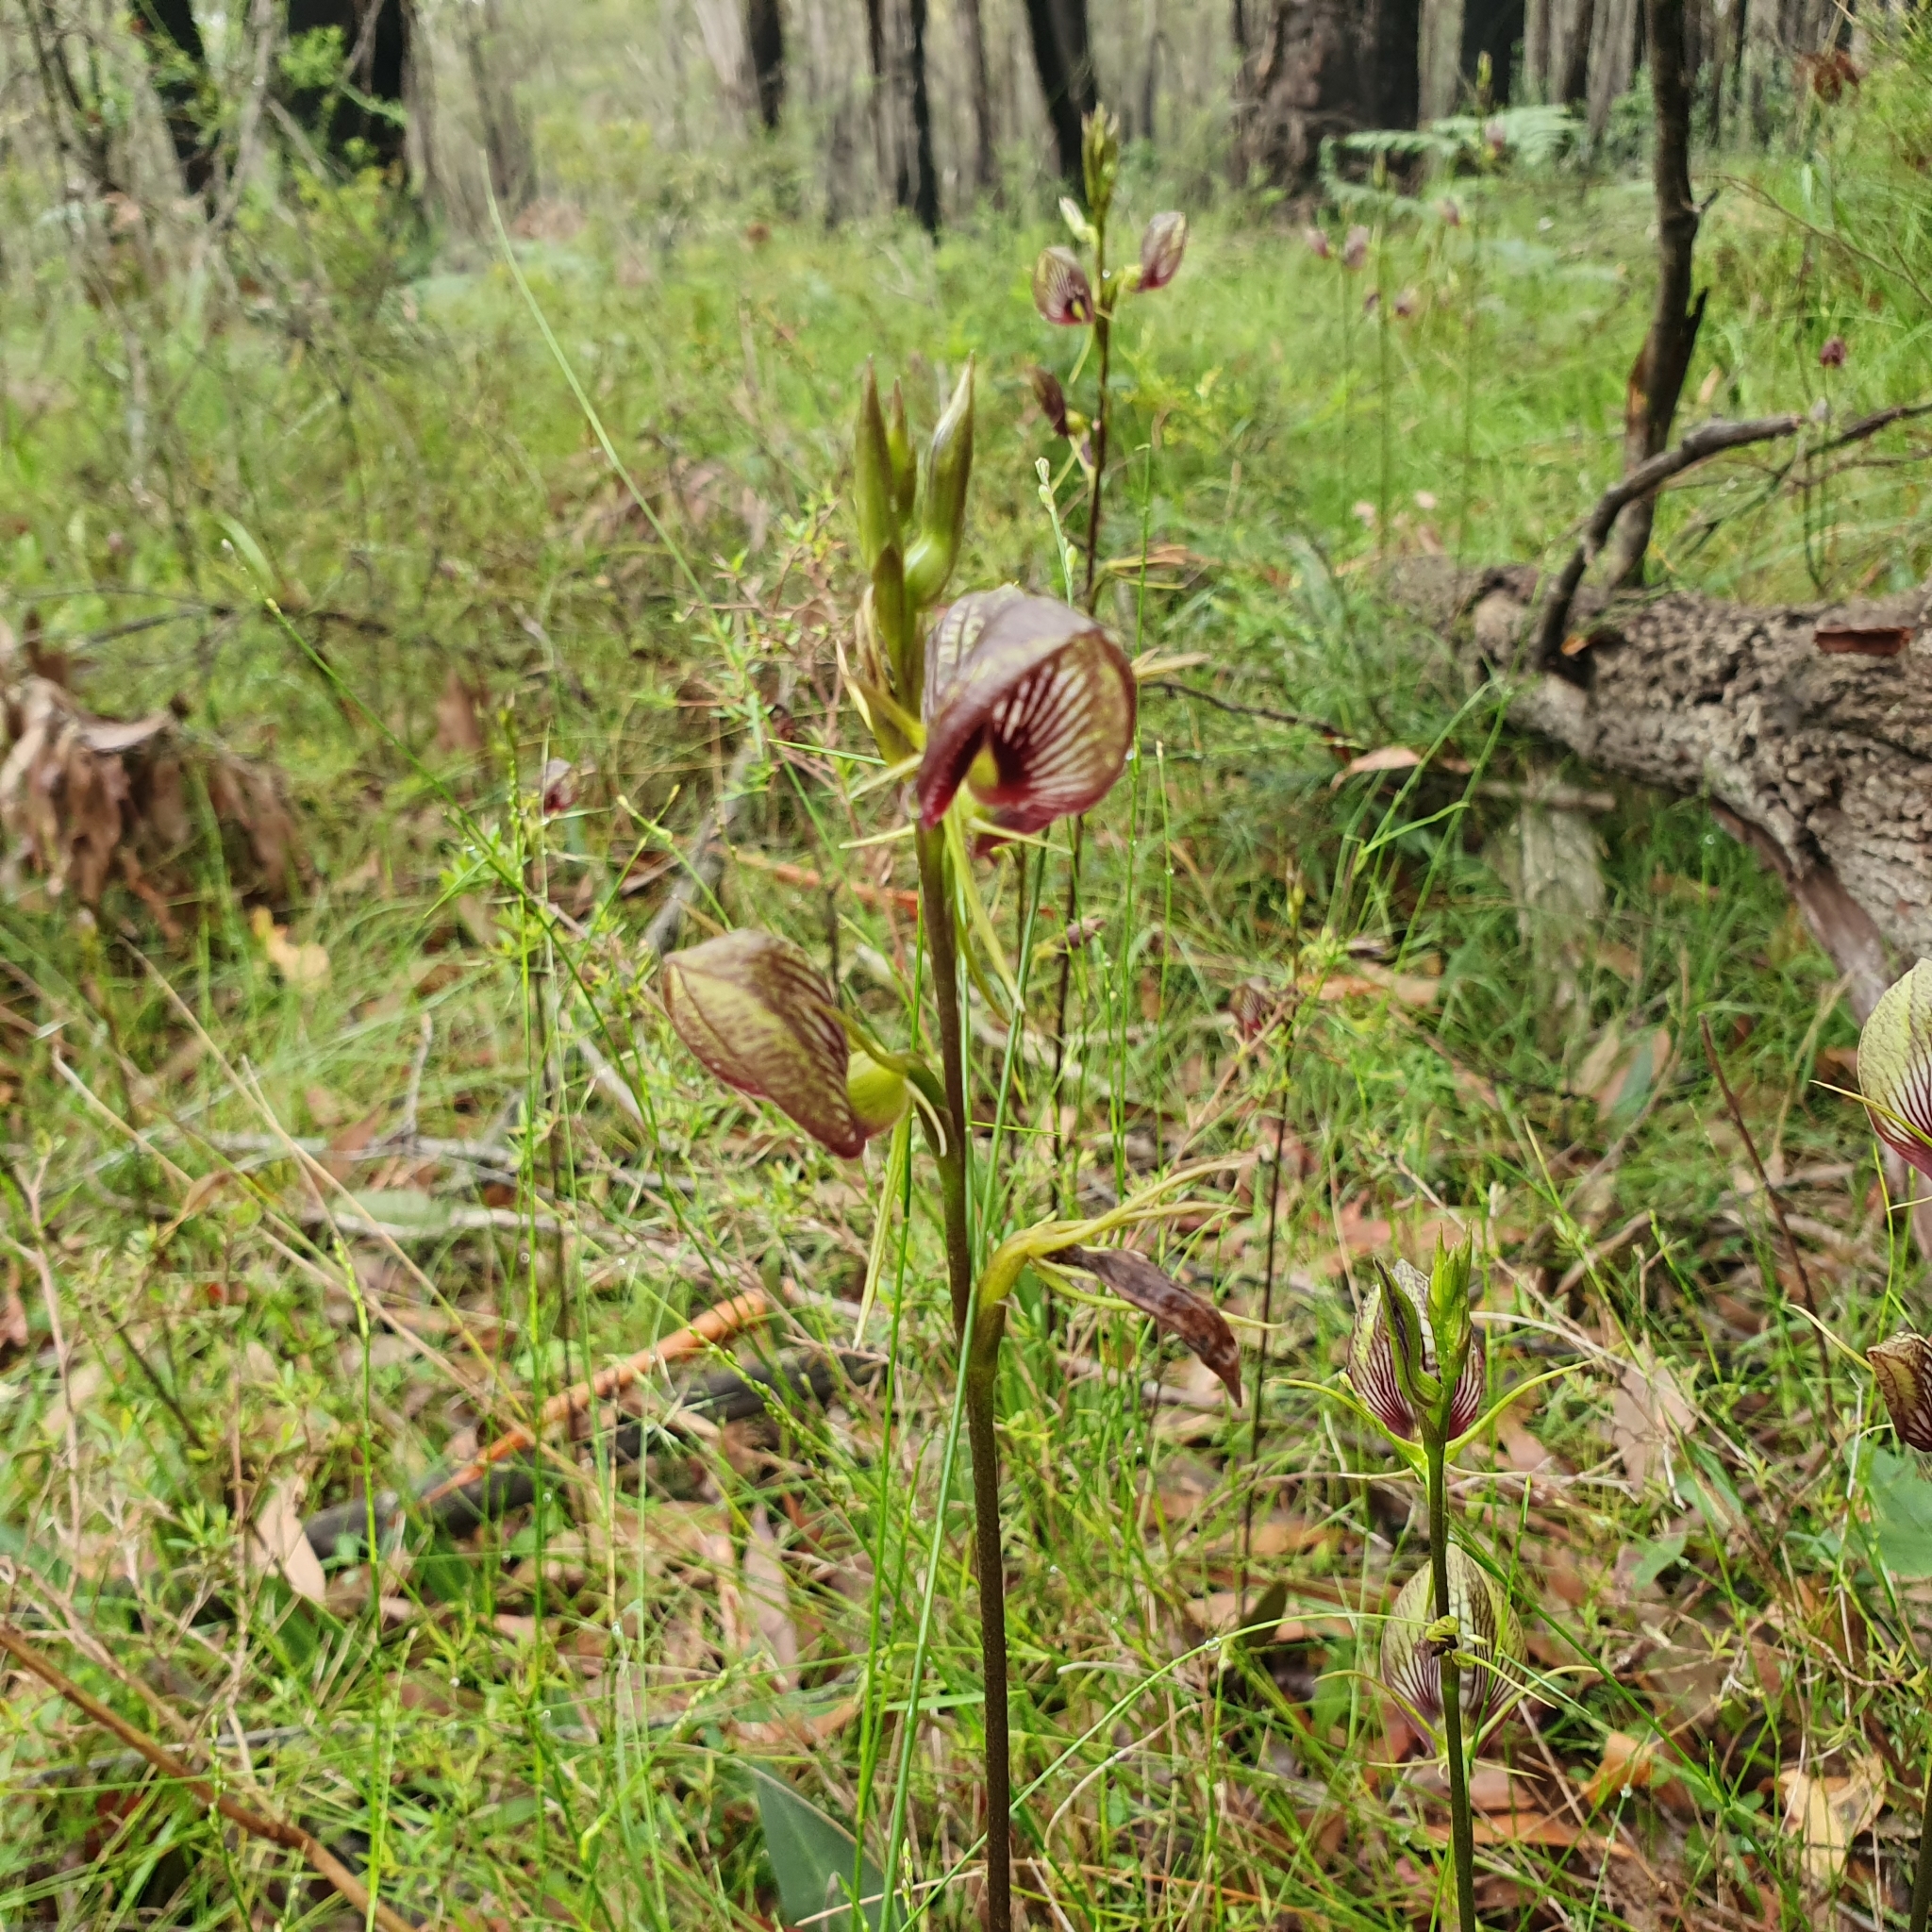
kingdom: Plantae
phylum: Tracheophyta
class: Liliopsida
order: Asparagales
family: Orchidaceae
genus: Cryptostylis
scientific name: Cryptostylis erecta
